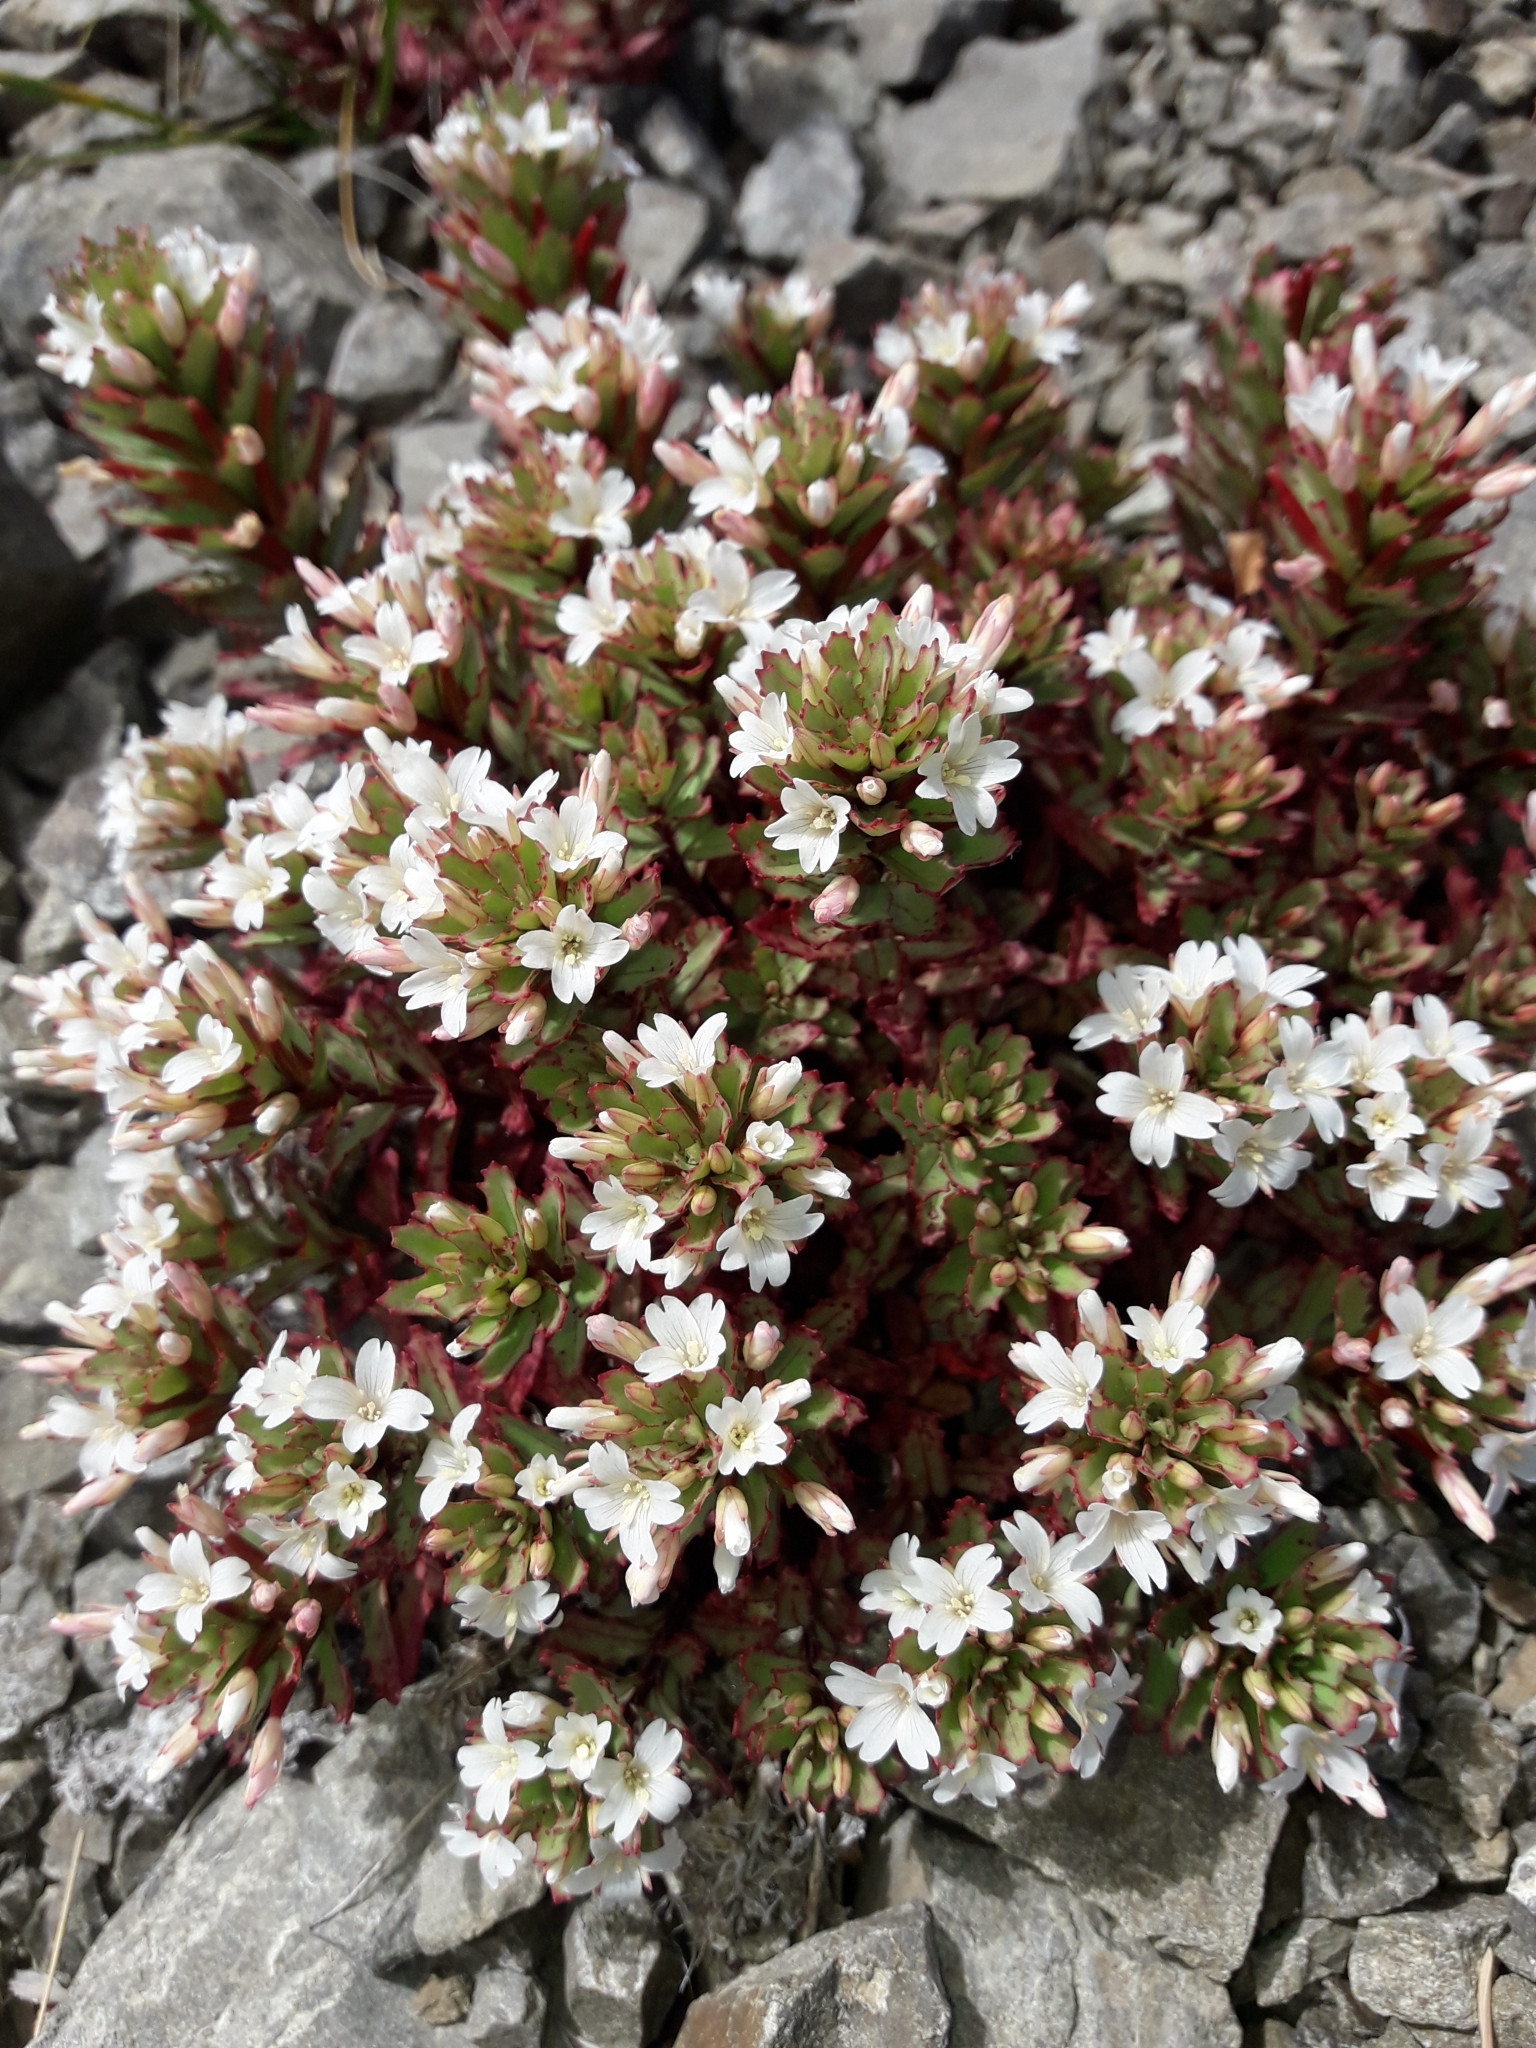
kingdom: Plantae
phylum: Tracheophyta
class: Magnoliopsida
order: Myrtales
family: Onagraceae
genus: Epilobium
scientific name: Epilobium pycnostachyum
